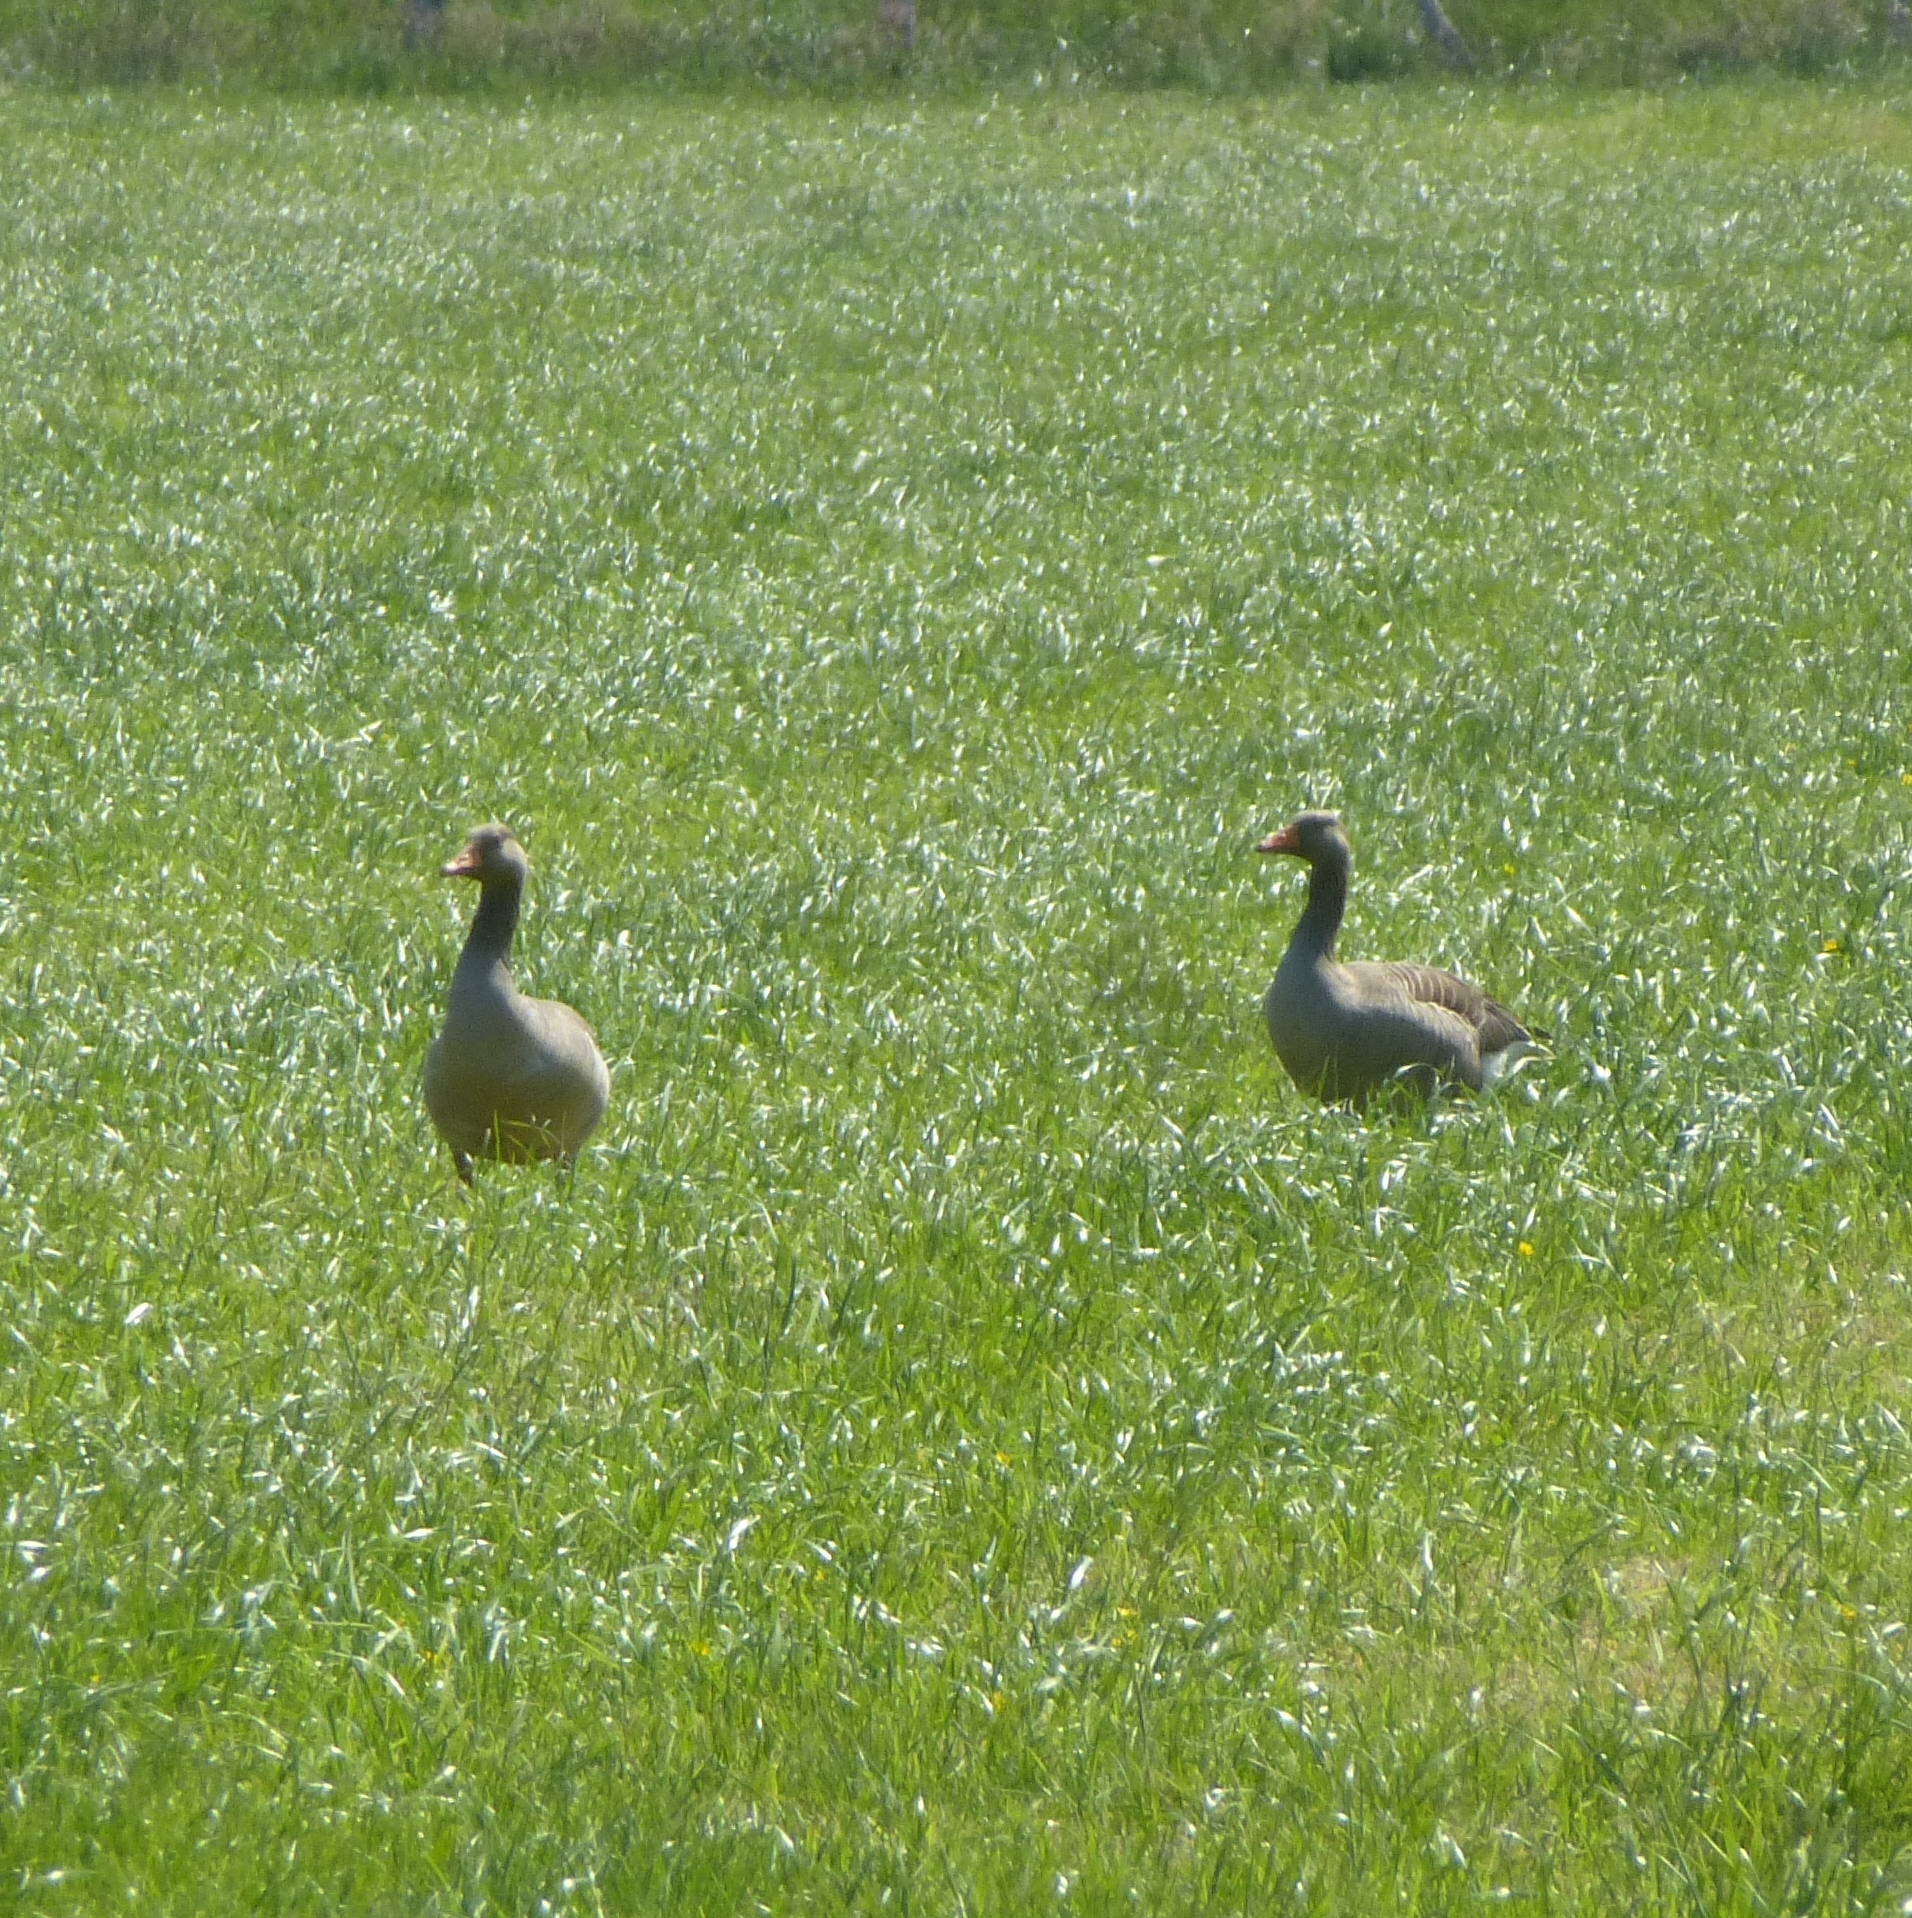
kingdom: Animalia
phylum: Chordata
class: Aves
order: Anseriformes
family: Anatidae
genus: Anser
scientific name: Anser anser
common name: Greylag goose
